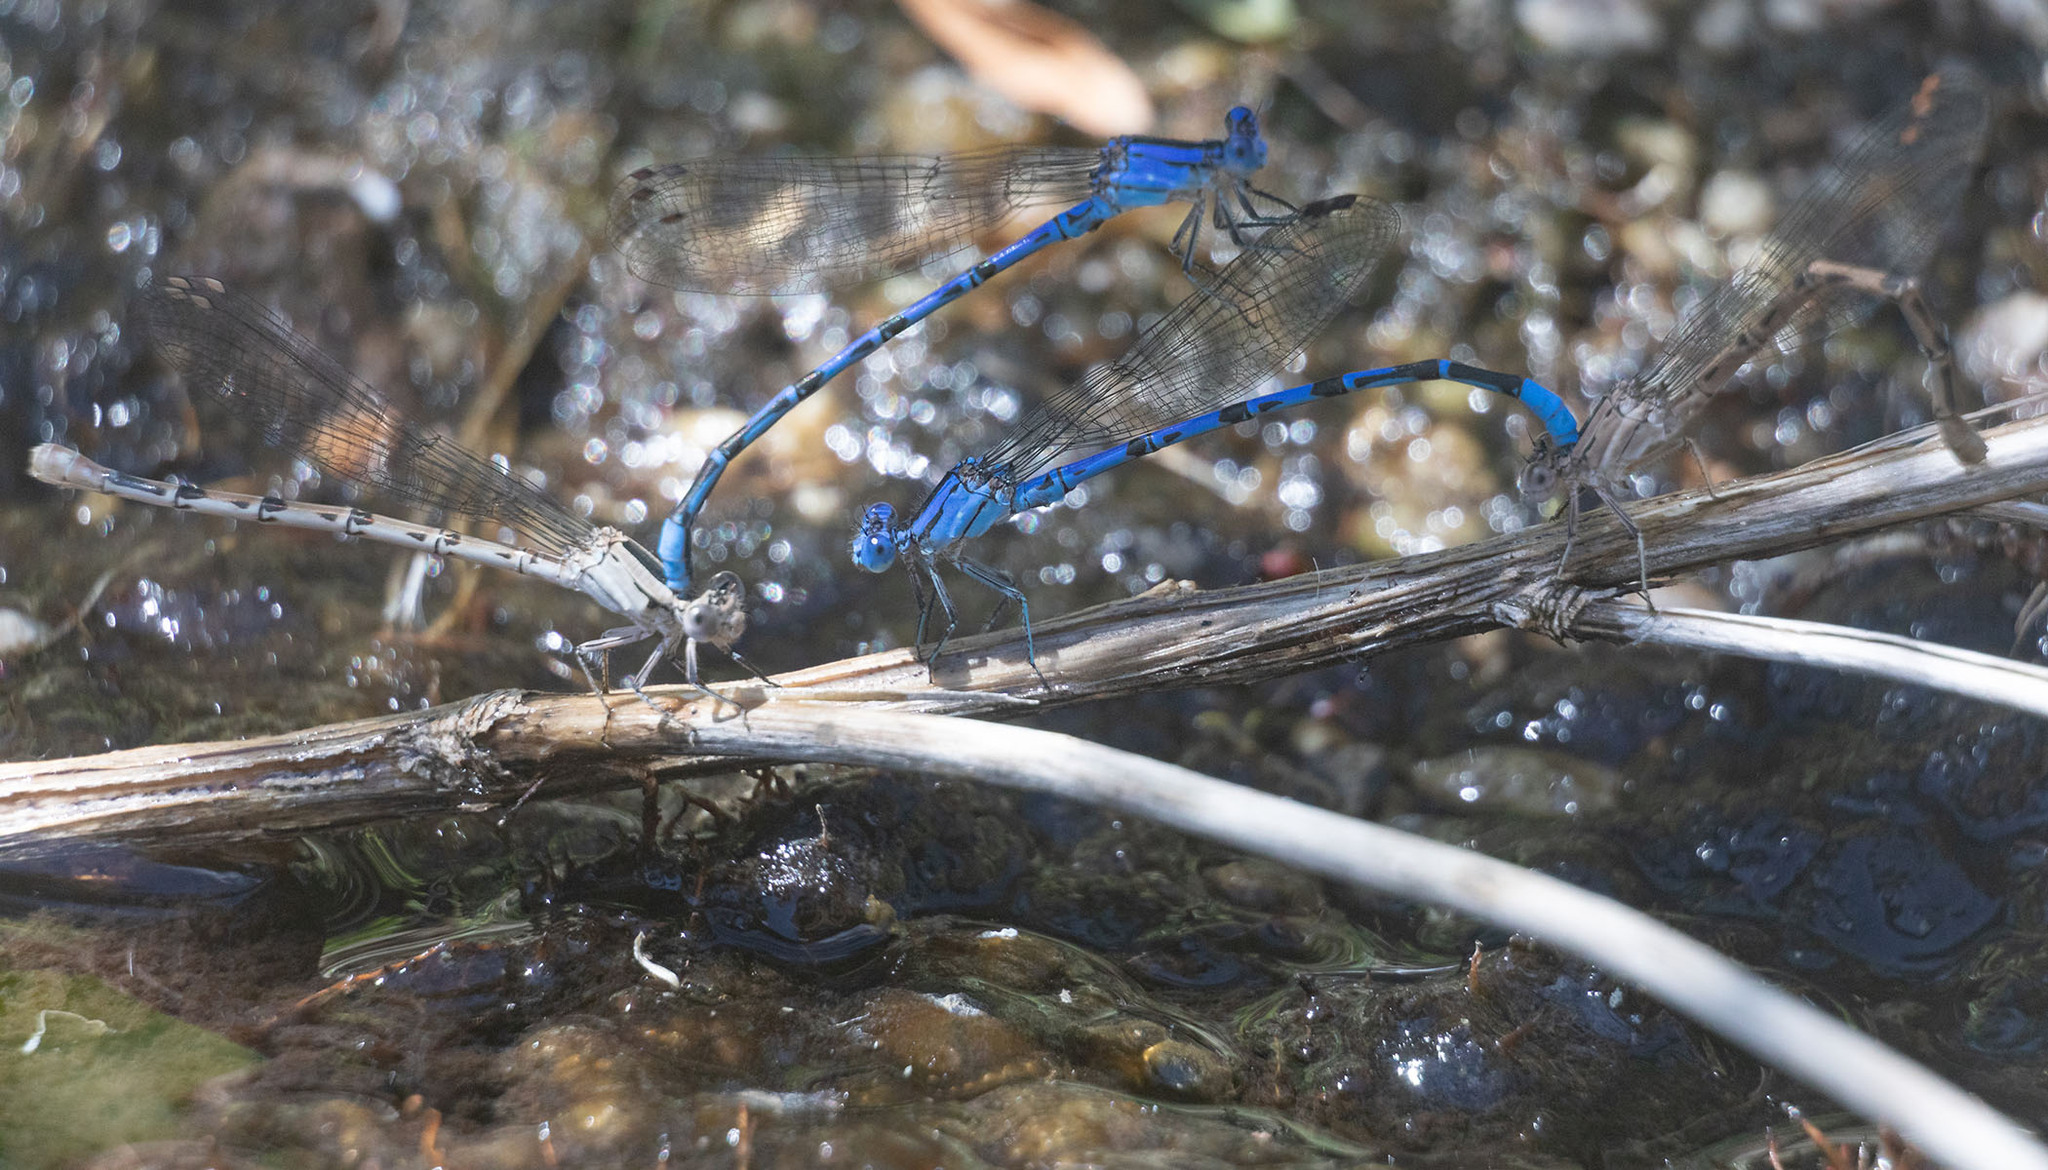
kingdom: Animalia
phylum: Arthropoda
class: Insecta
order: Odonata
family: Coenagrionidae
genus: Argia
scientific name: Argia vivida
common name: Vivid dancer
